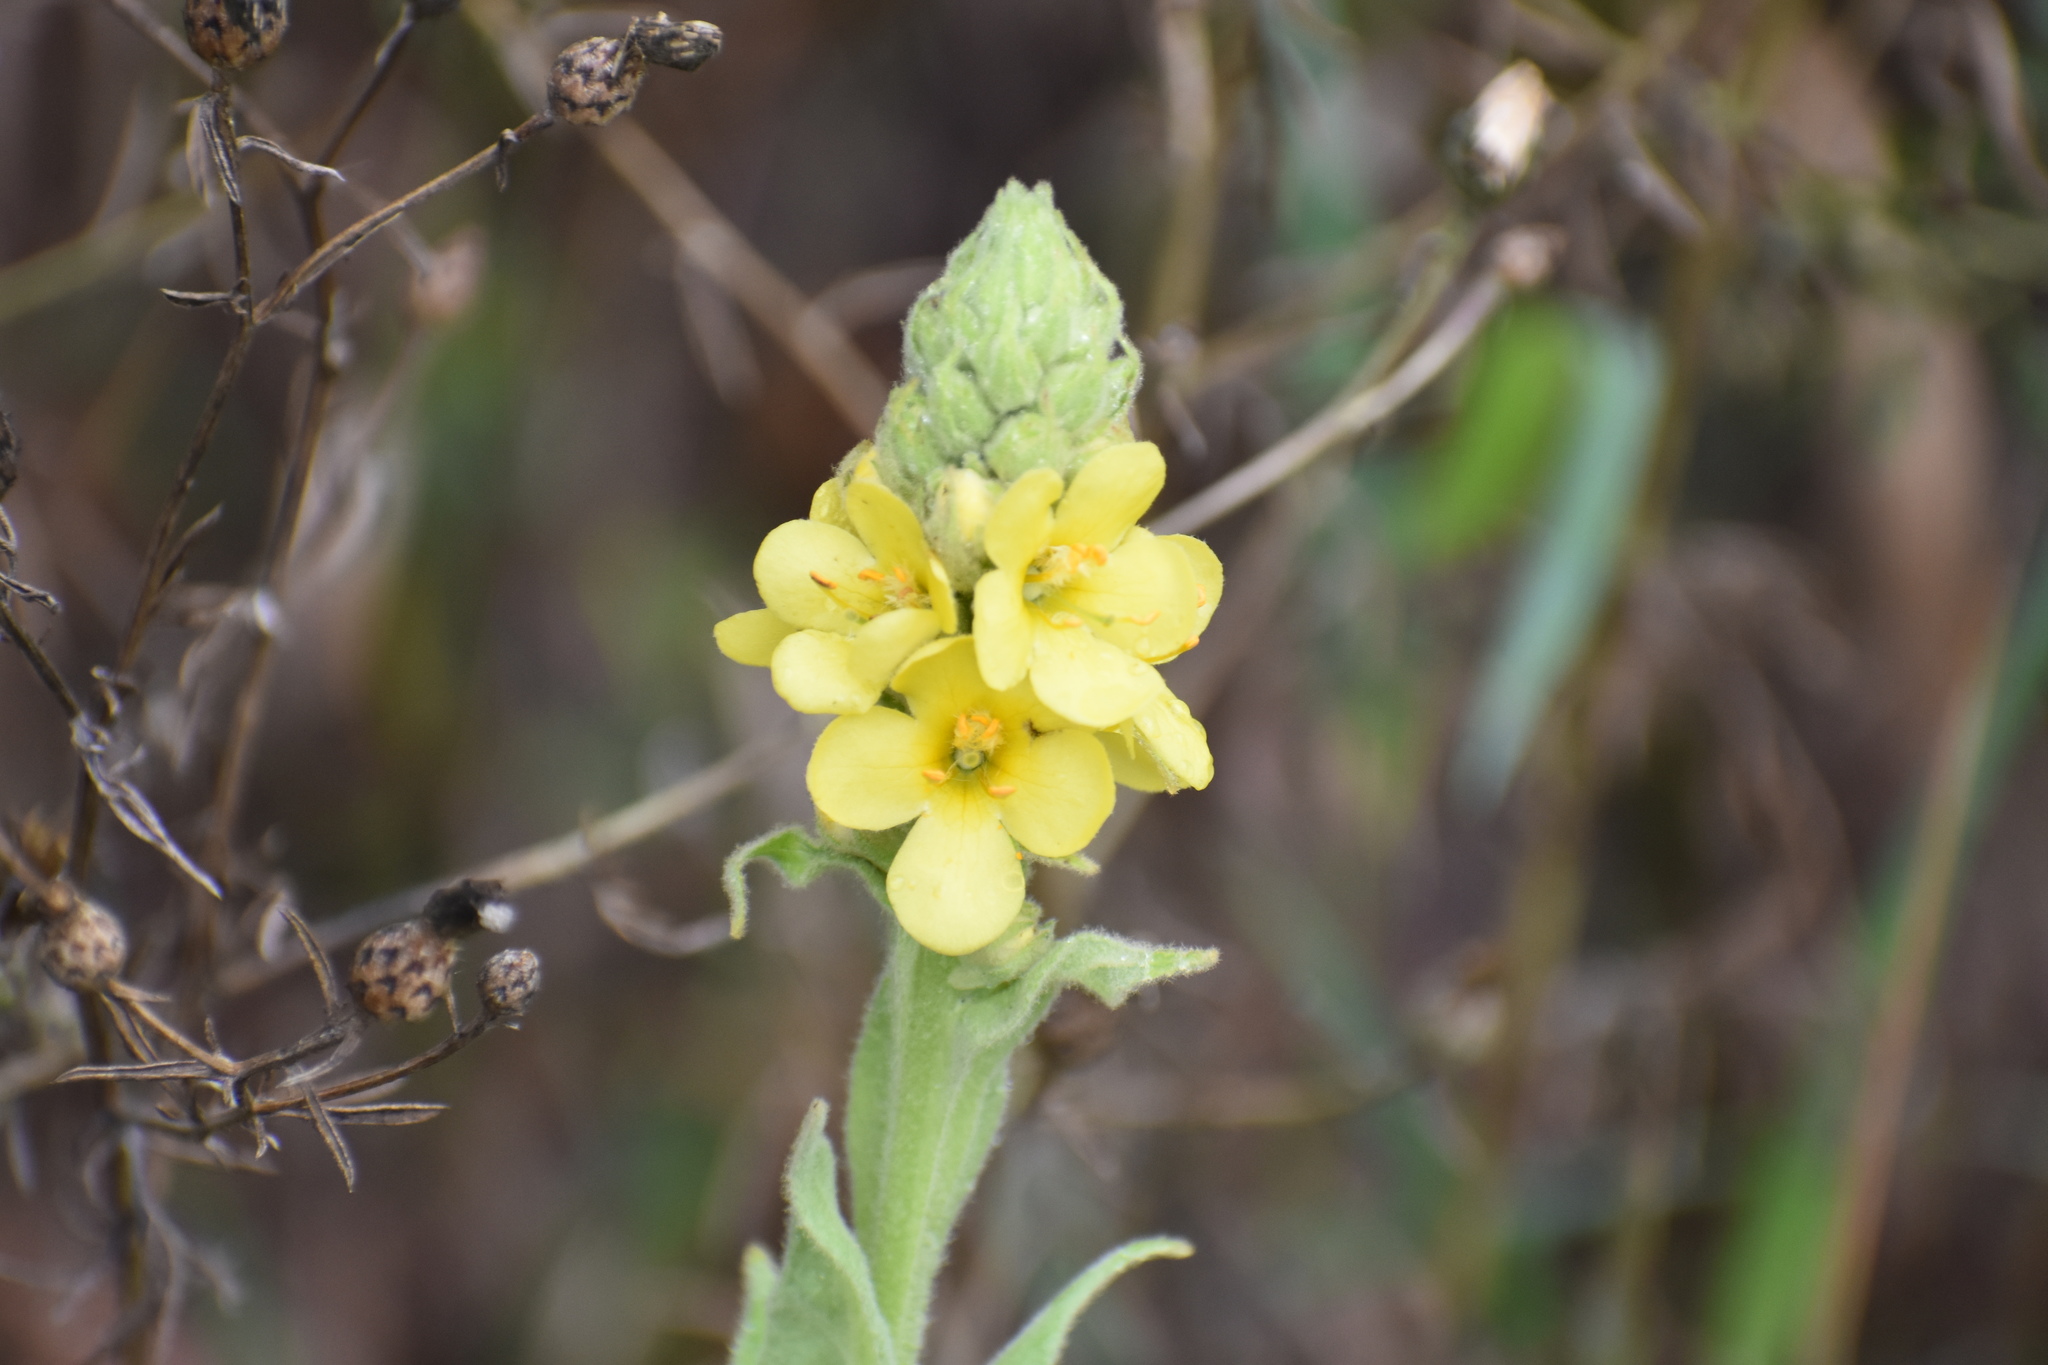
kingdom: Plantae
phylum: Tracheophyta
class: Magnoliopsida
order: Lamiales
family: Scrophulariaceae
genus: Verbascum
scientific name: Verbascum thapsus
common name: Common mullein
